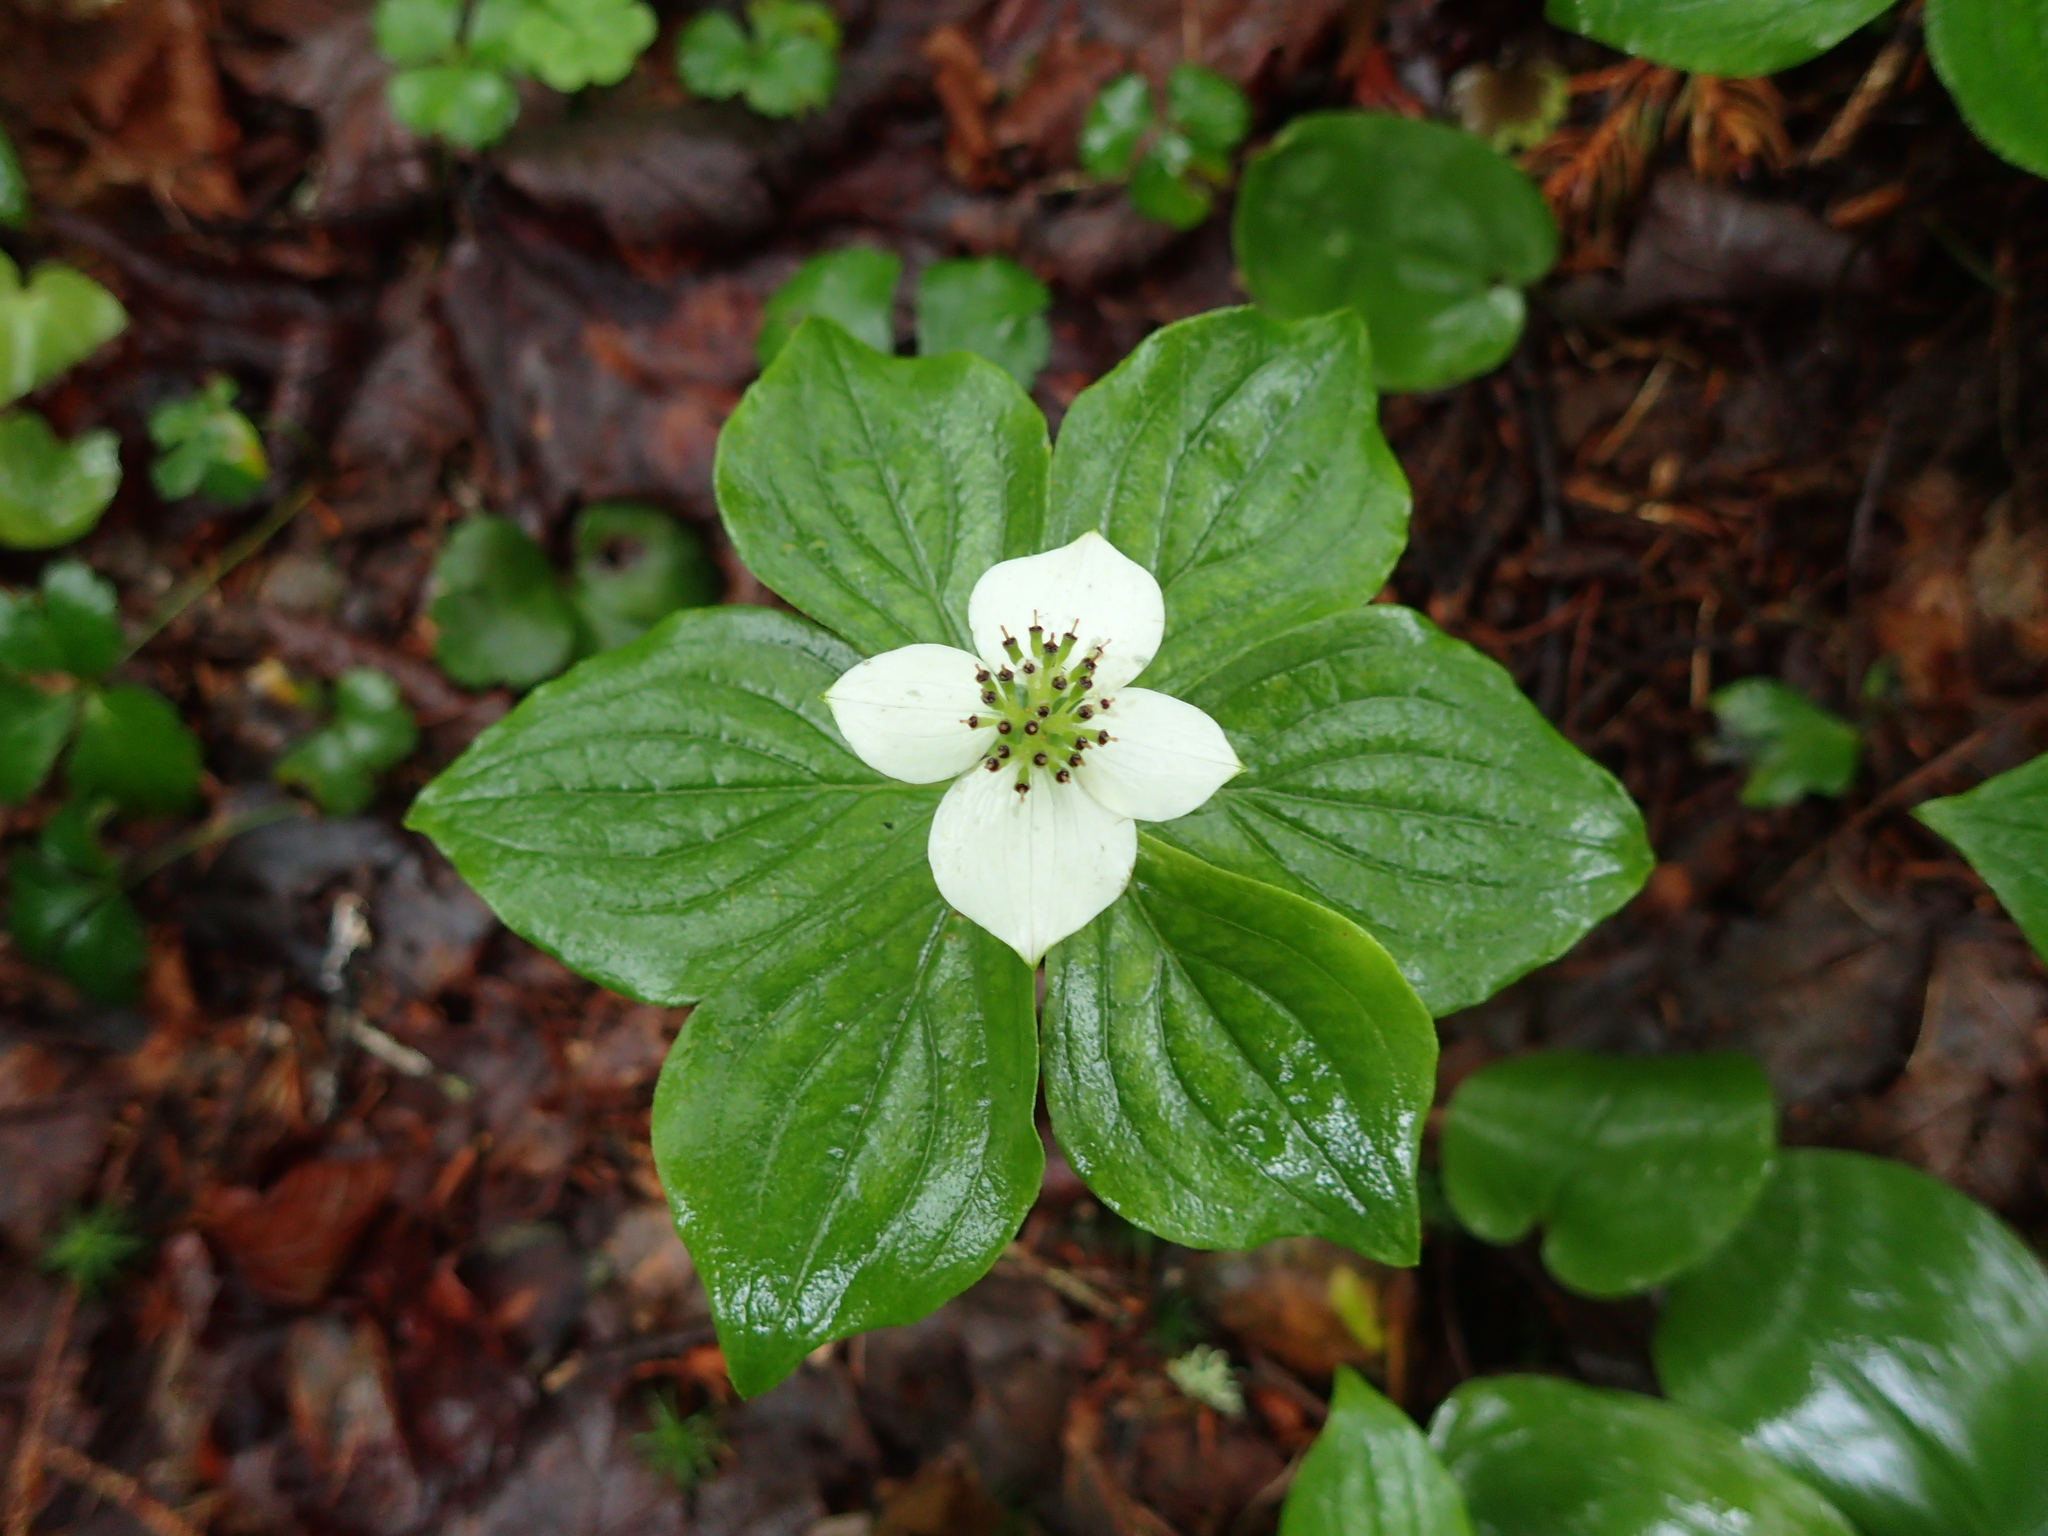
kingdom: Plantae
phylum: Tracheophyta
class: Magnoliopsida
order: Cornales
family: Cornaceae
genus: Cornus
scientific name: Cornus canadensis
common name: Creeping dogwood
